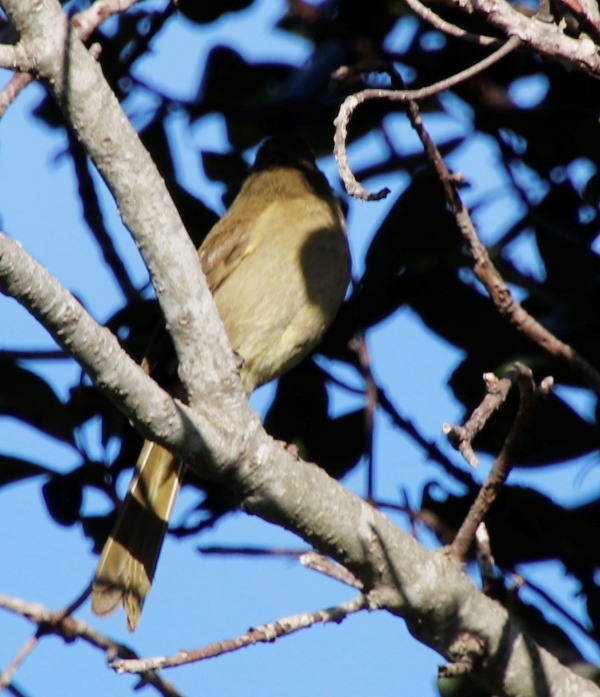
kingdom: Animalia
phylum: Chordata
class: Aves
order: Passeriformes
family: Pycnonotidae
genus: Andropadus
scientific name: Andropadus importunus
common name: Sombre greenbul
